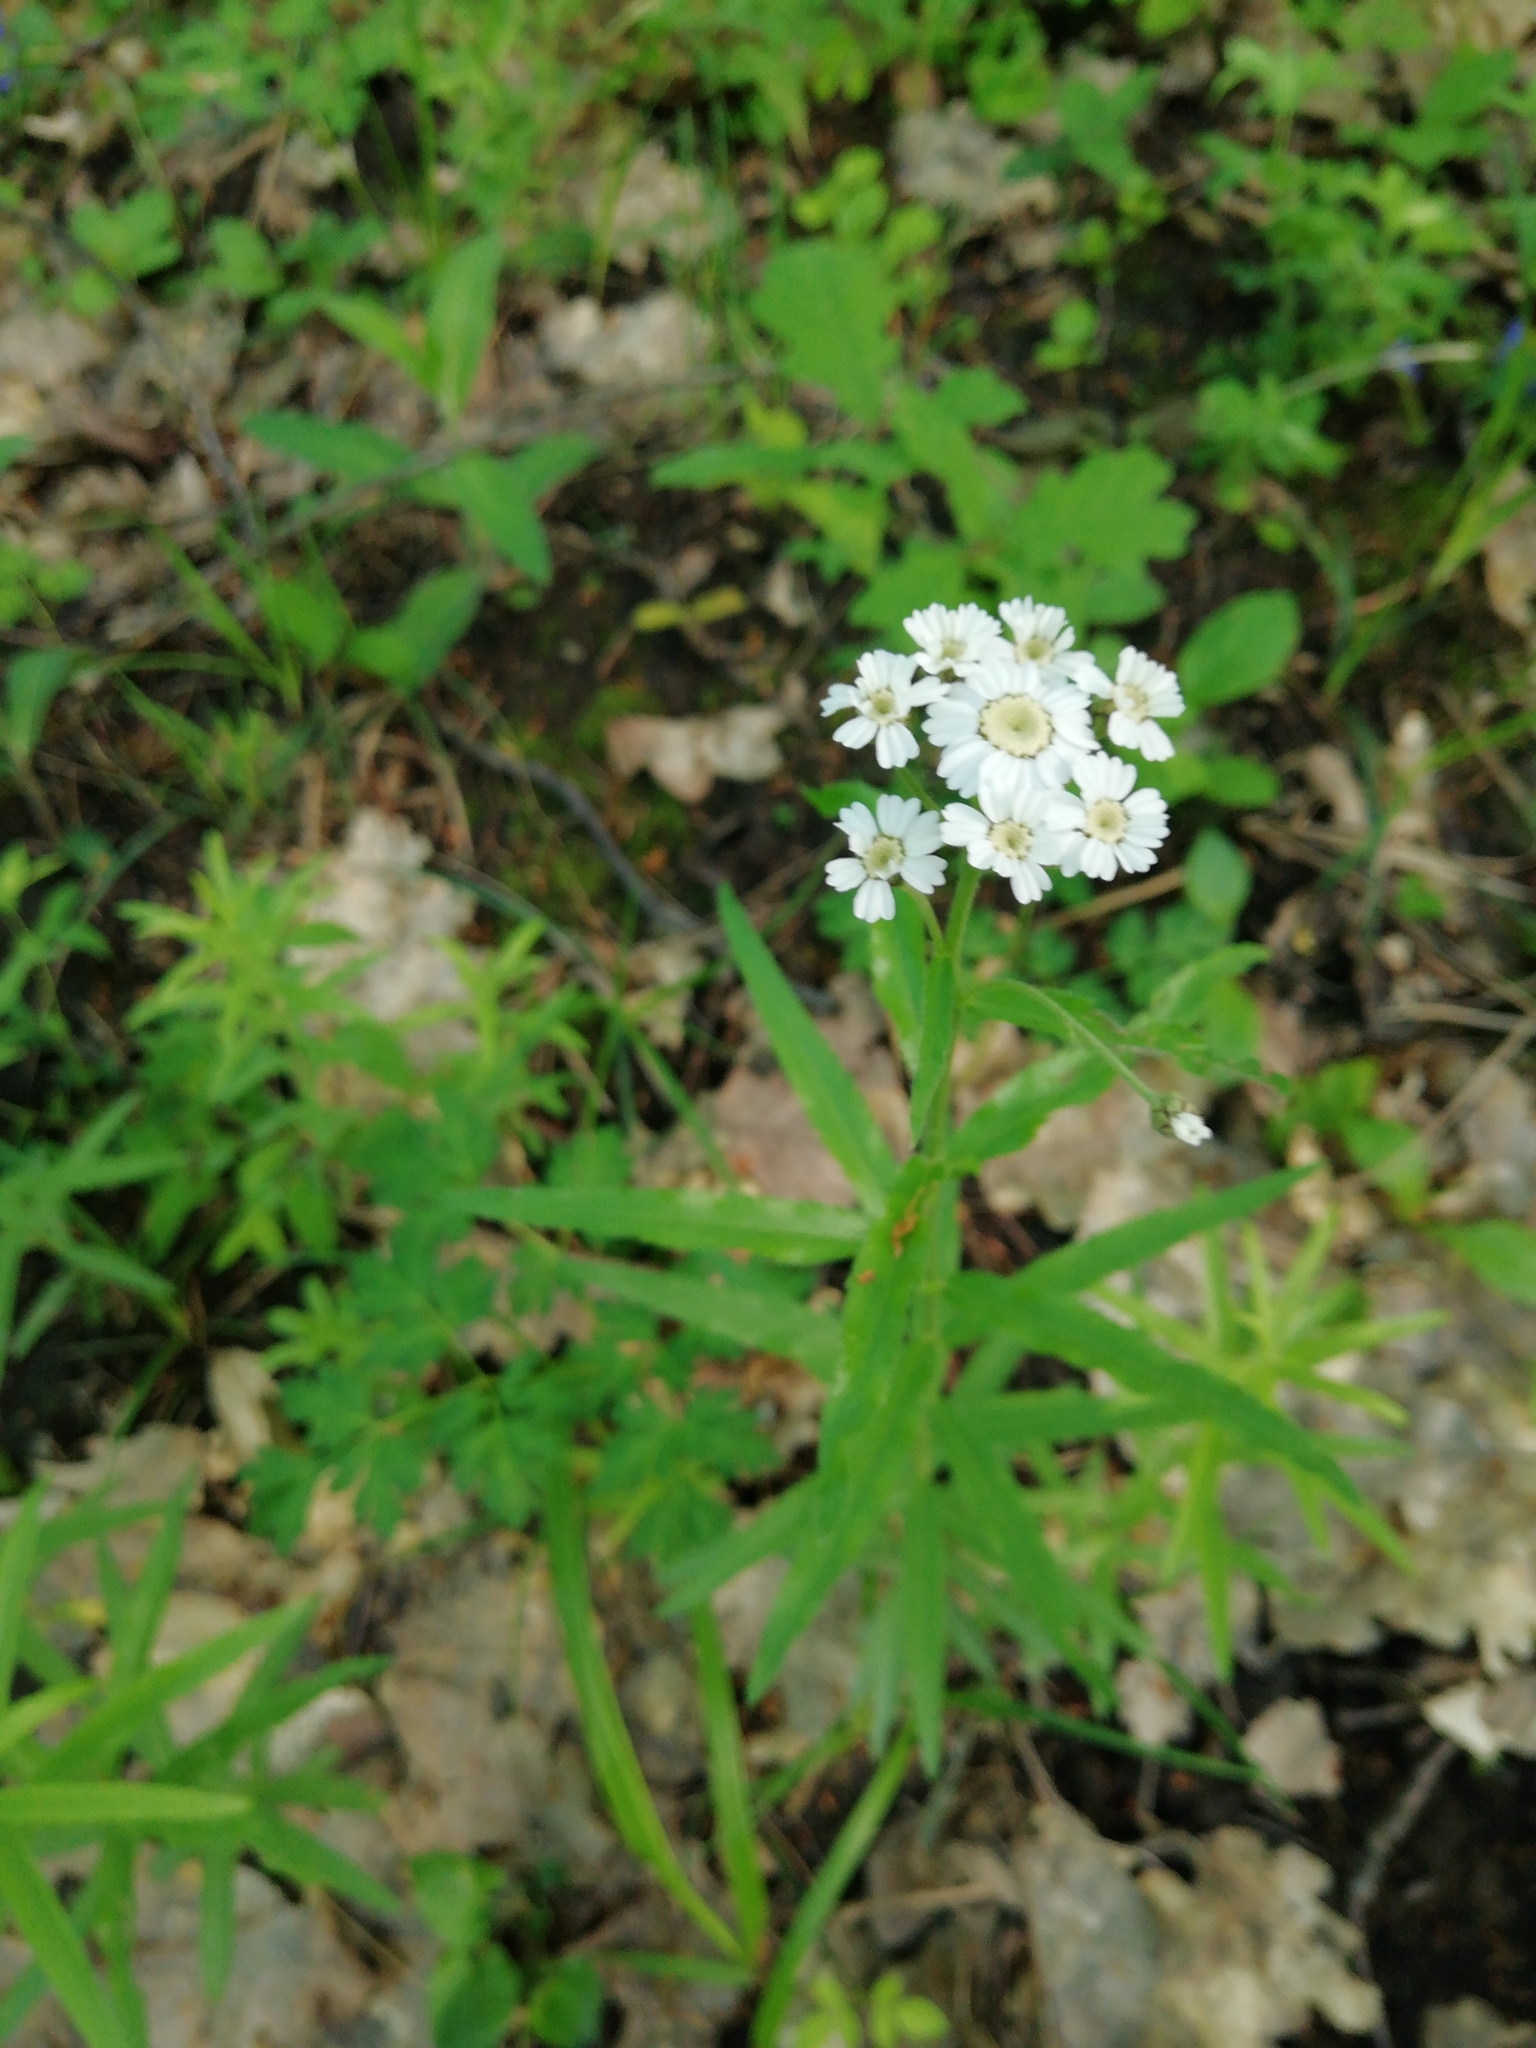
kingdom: Plantae
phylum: Tracheophyta
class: Magnoliopsida
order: Asterales
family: Asteraceae
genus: Achillea
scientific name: Achillea biserrata
